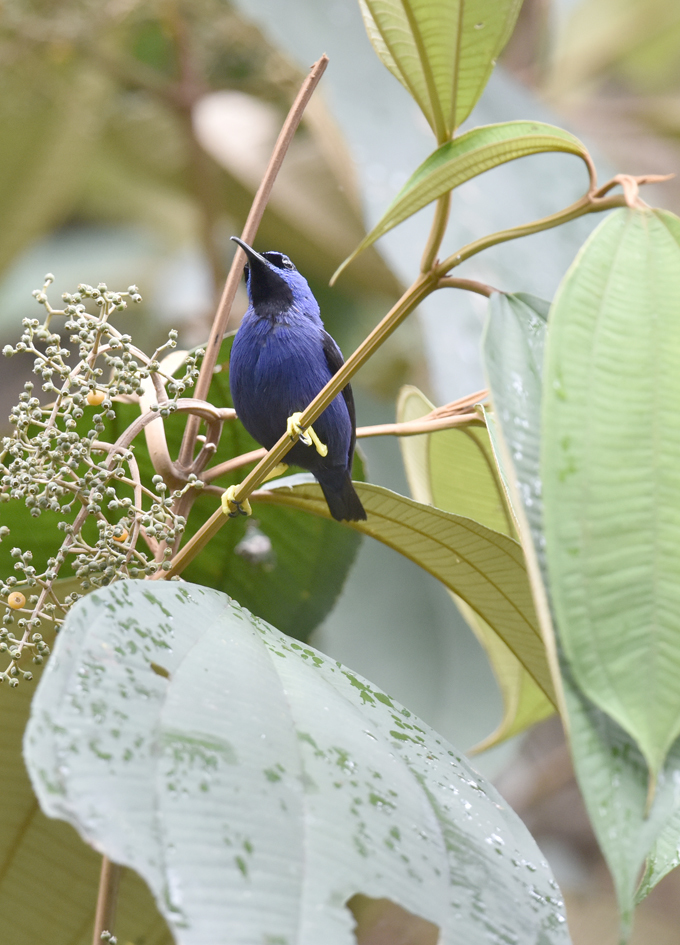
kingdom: Animalia
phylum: Chordata
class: Aves
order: Passeriformes
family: Thraupidae
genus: Cyanerpes
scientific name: Cyanerpes caeruleus
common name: Purple honeycreeper
